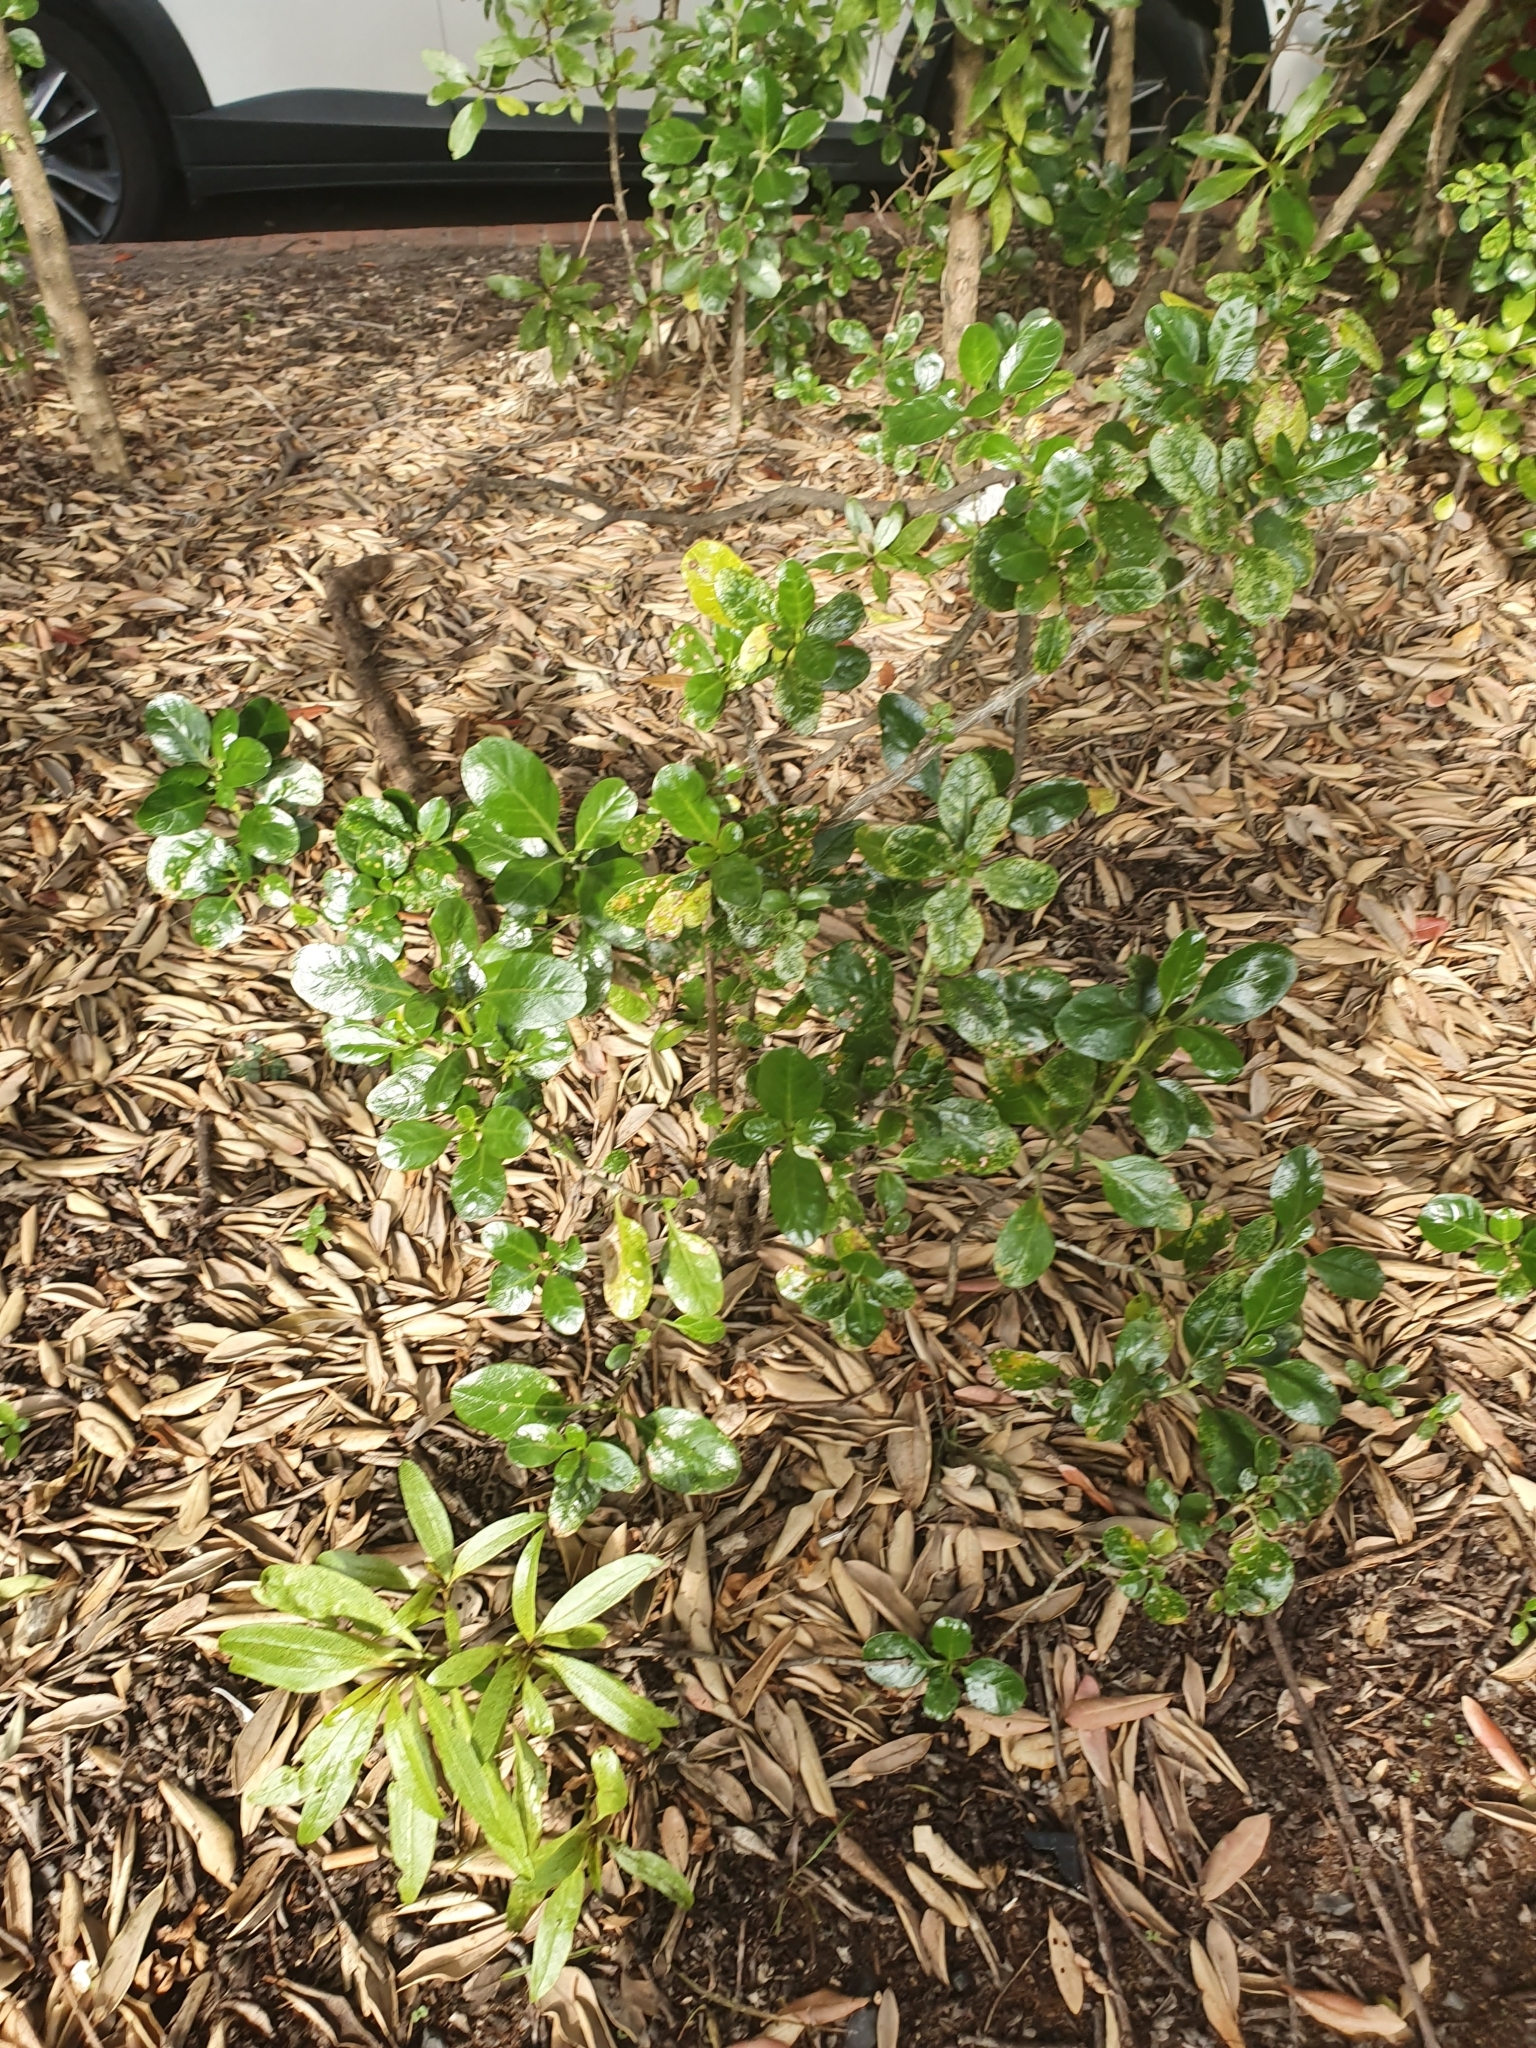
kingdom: Plantae
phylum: Tracheophyta
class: Magnoliopsida
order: Gentianales
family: Rubiaceae
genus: Coprosma
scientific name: Coprosma repens
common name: Tree bedstraw
